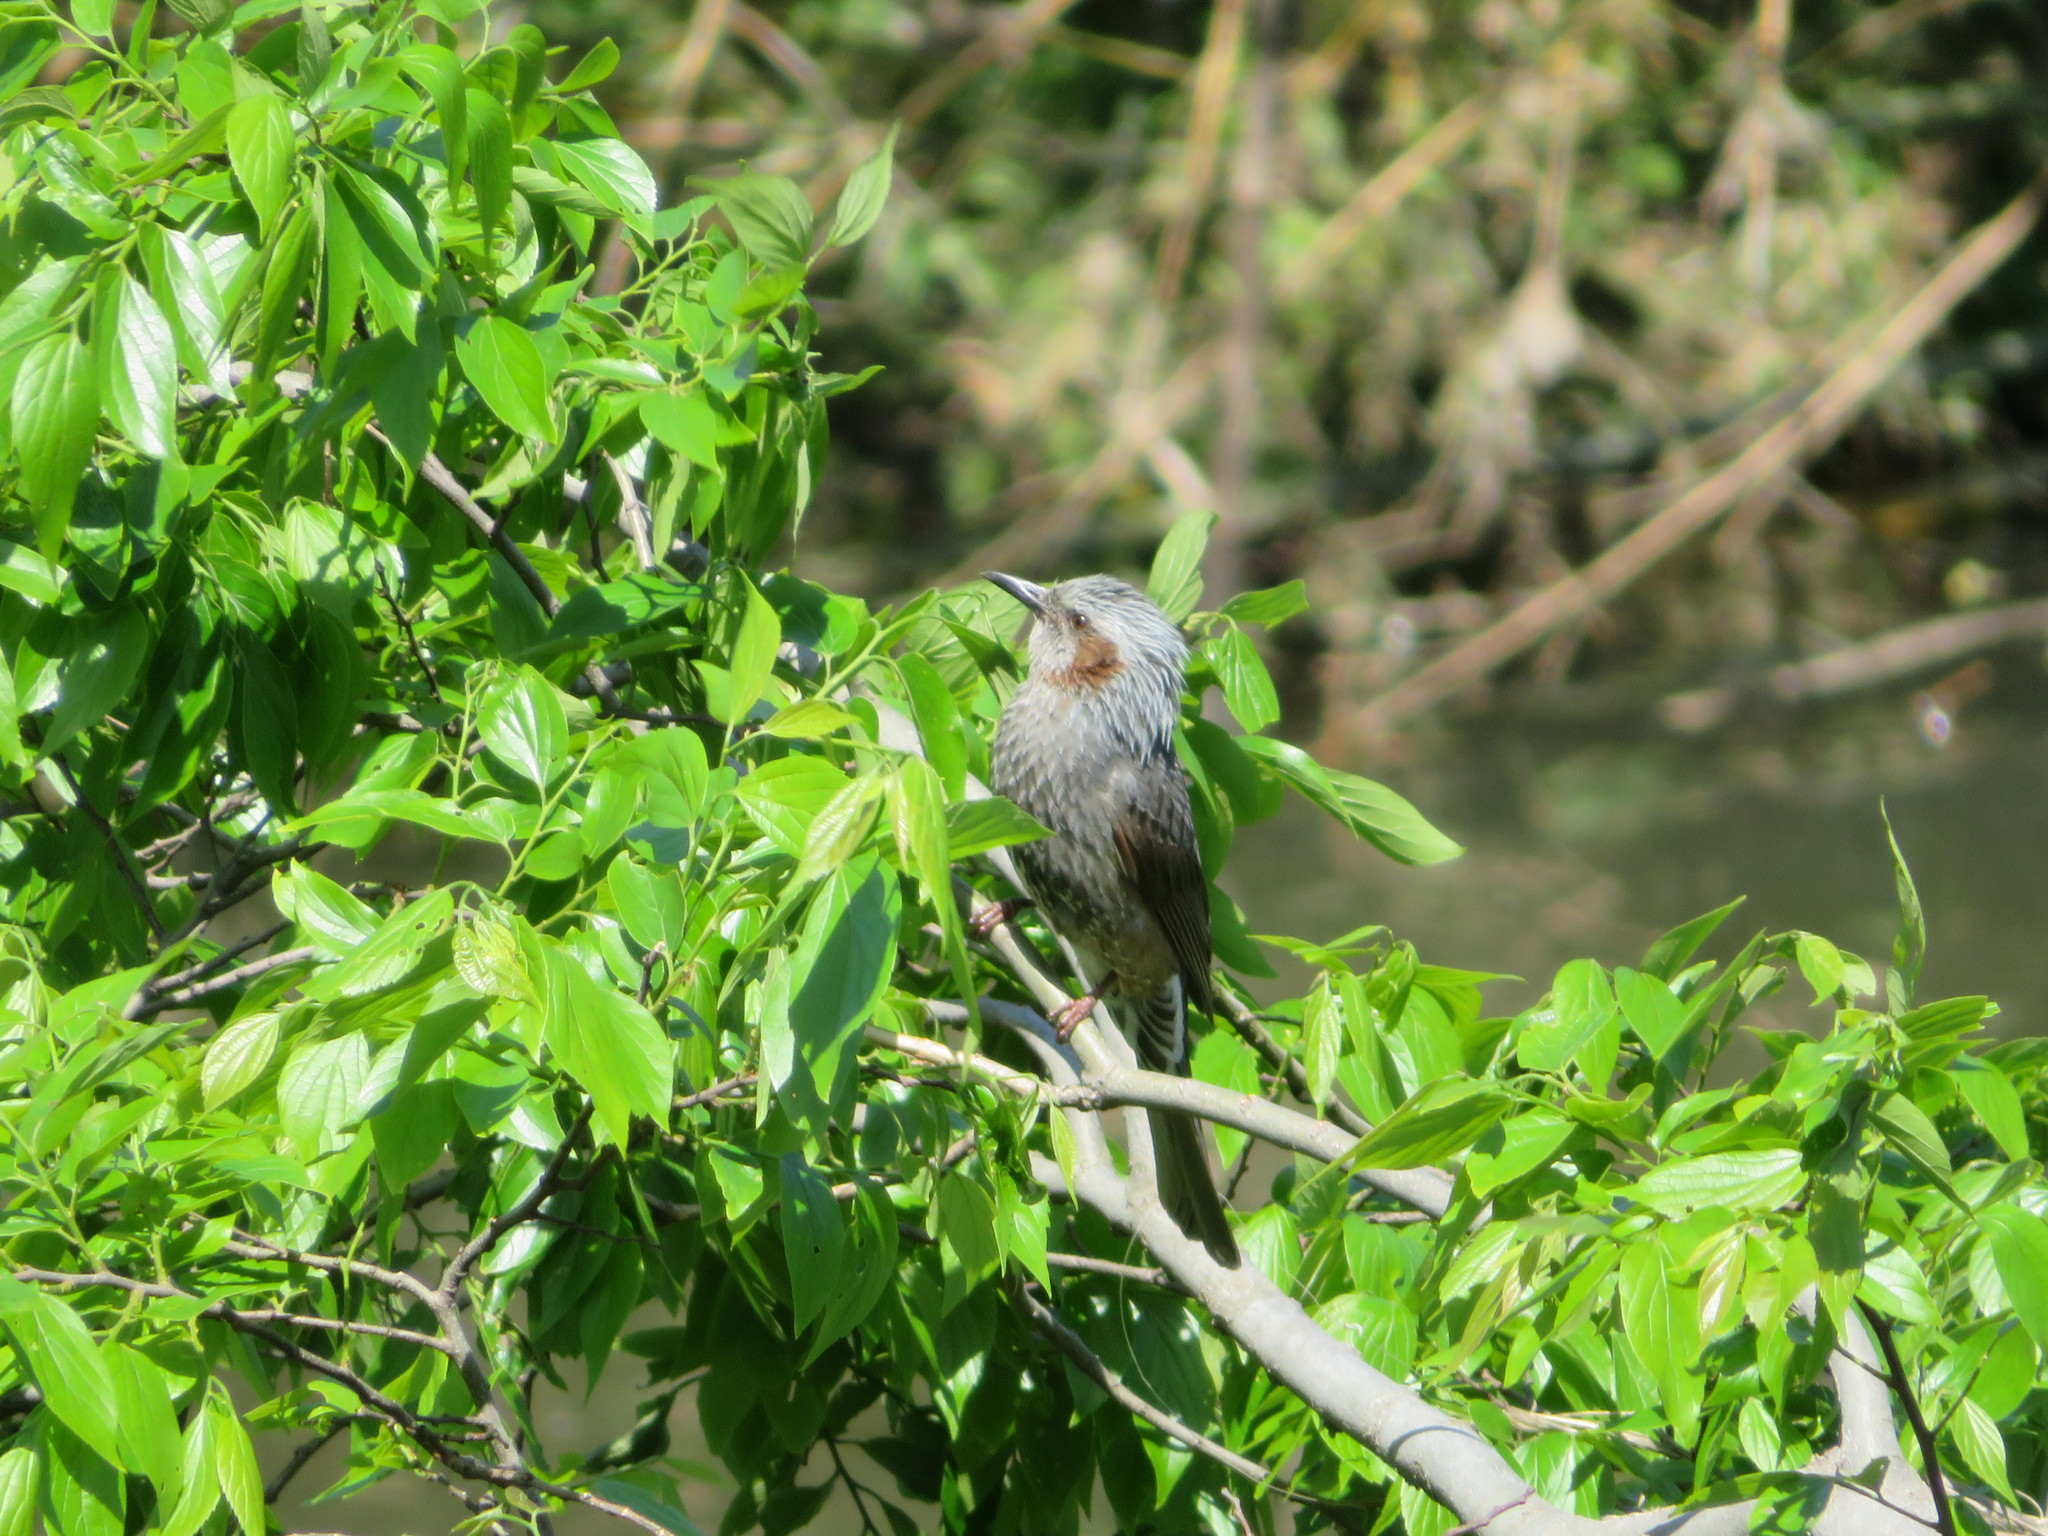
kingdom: Animalia
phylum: Chordata
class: Aves
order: Passeriformes
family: Pycnonotidae
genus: Hypsipetes
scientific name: Hypsipetes amaurotis
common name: Brown-eared bulbul
